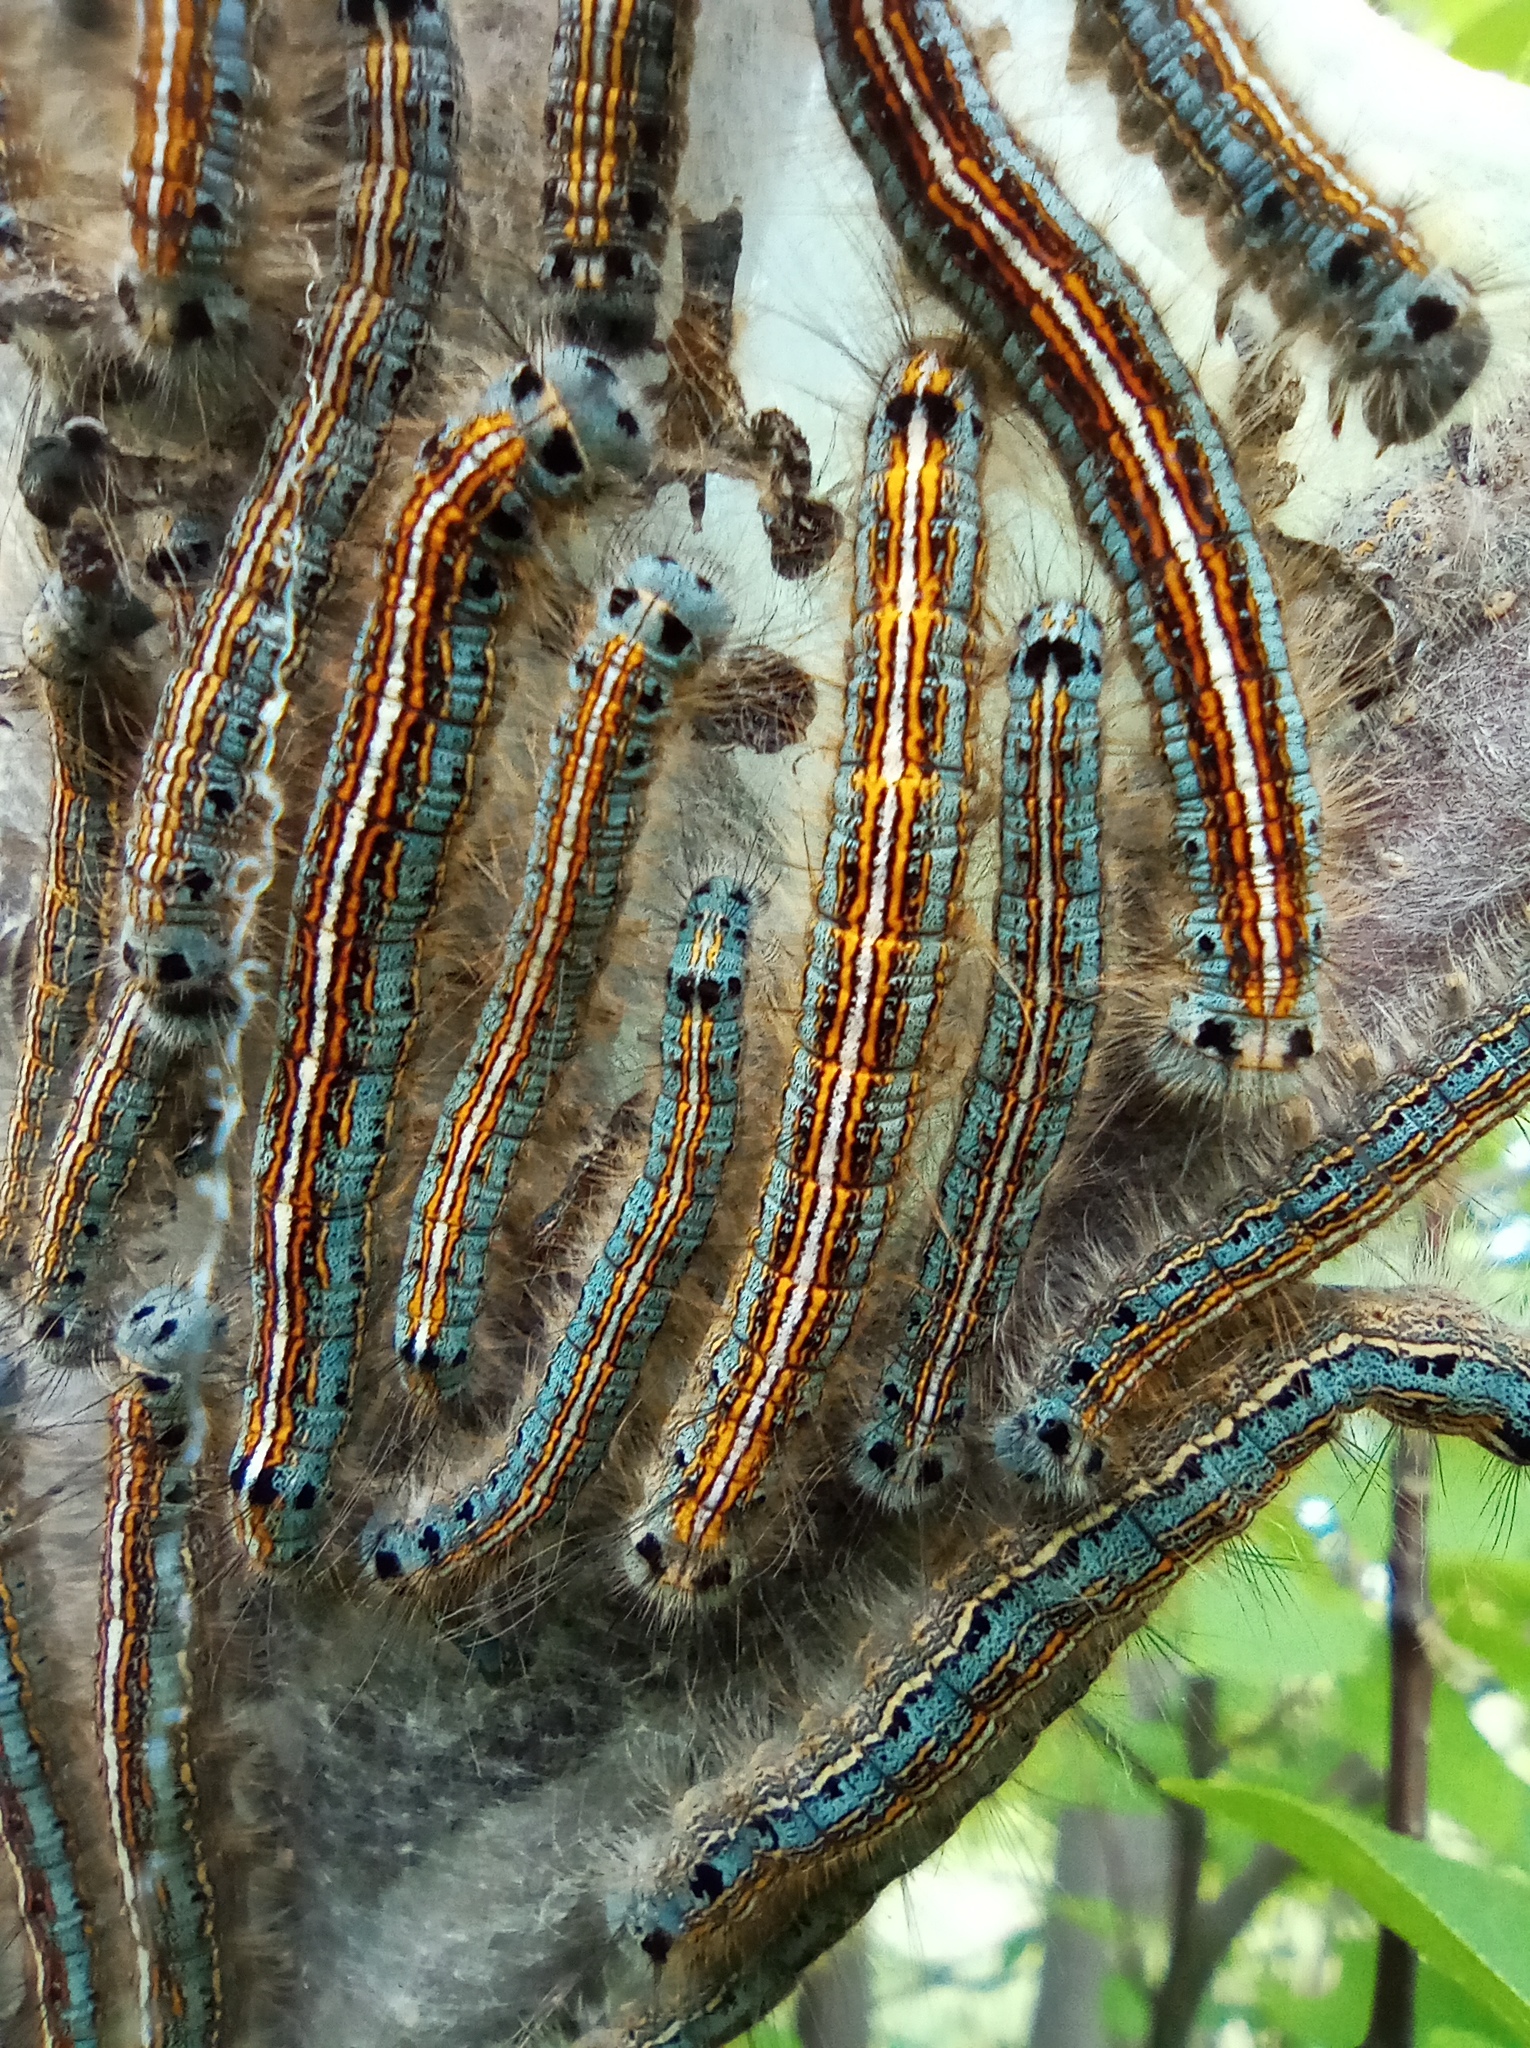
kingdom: Animalia
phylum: Arthropoda
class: Insecta
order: Lepidoptera
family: Lasiocampidae
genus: Malacosoma
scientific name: Malacosoma neustria
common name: The lackey
